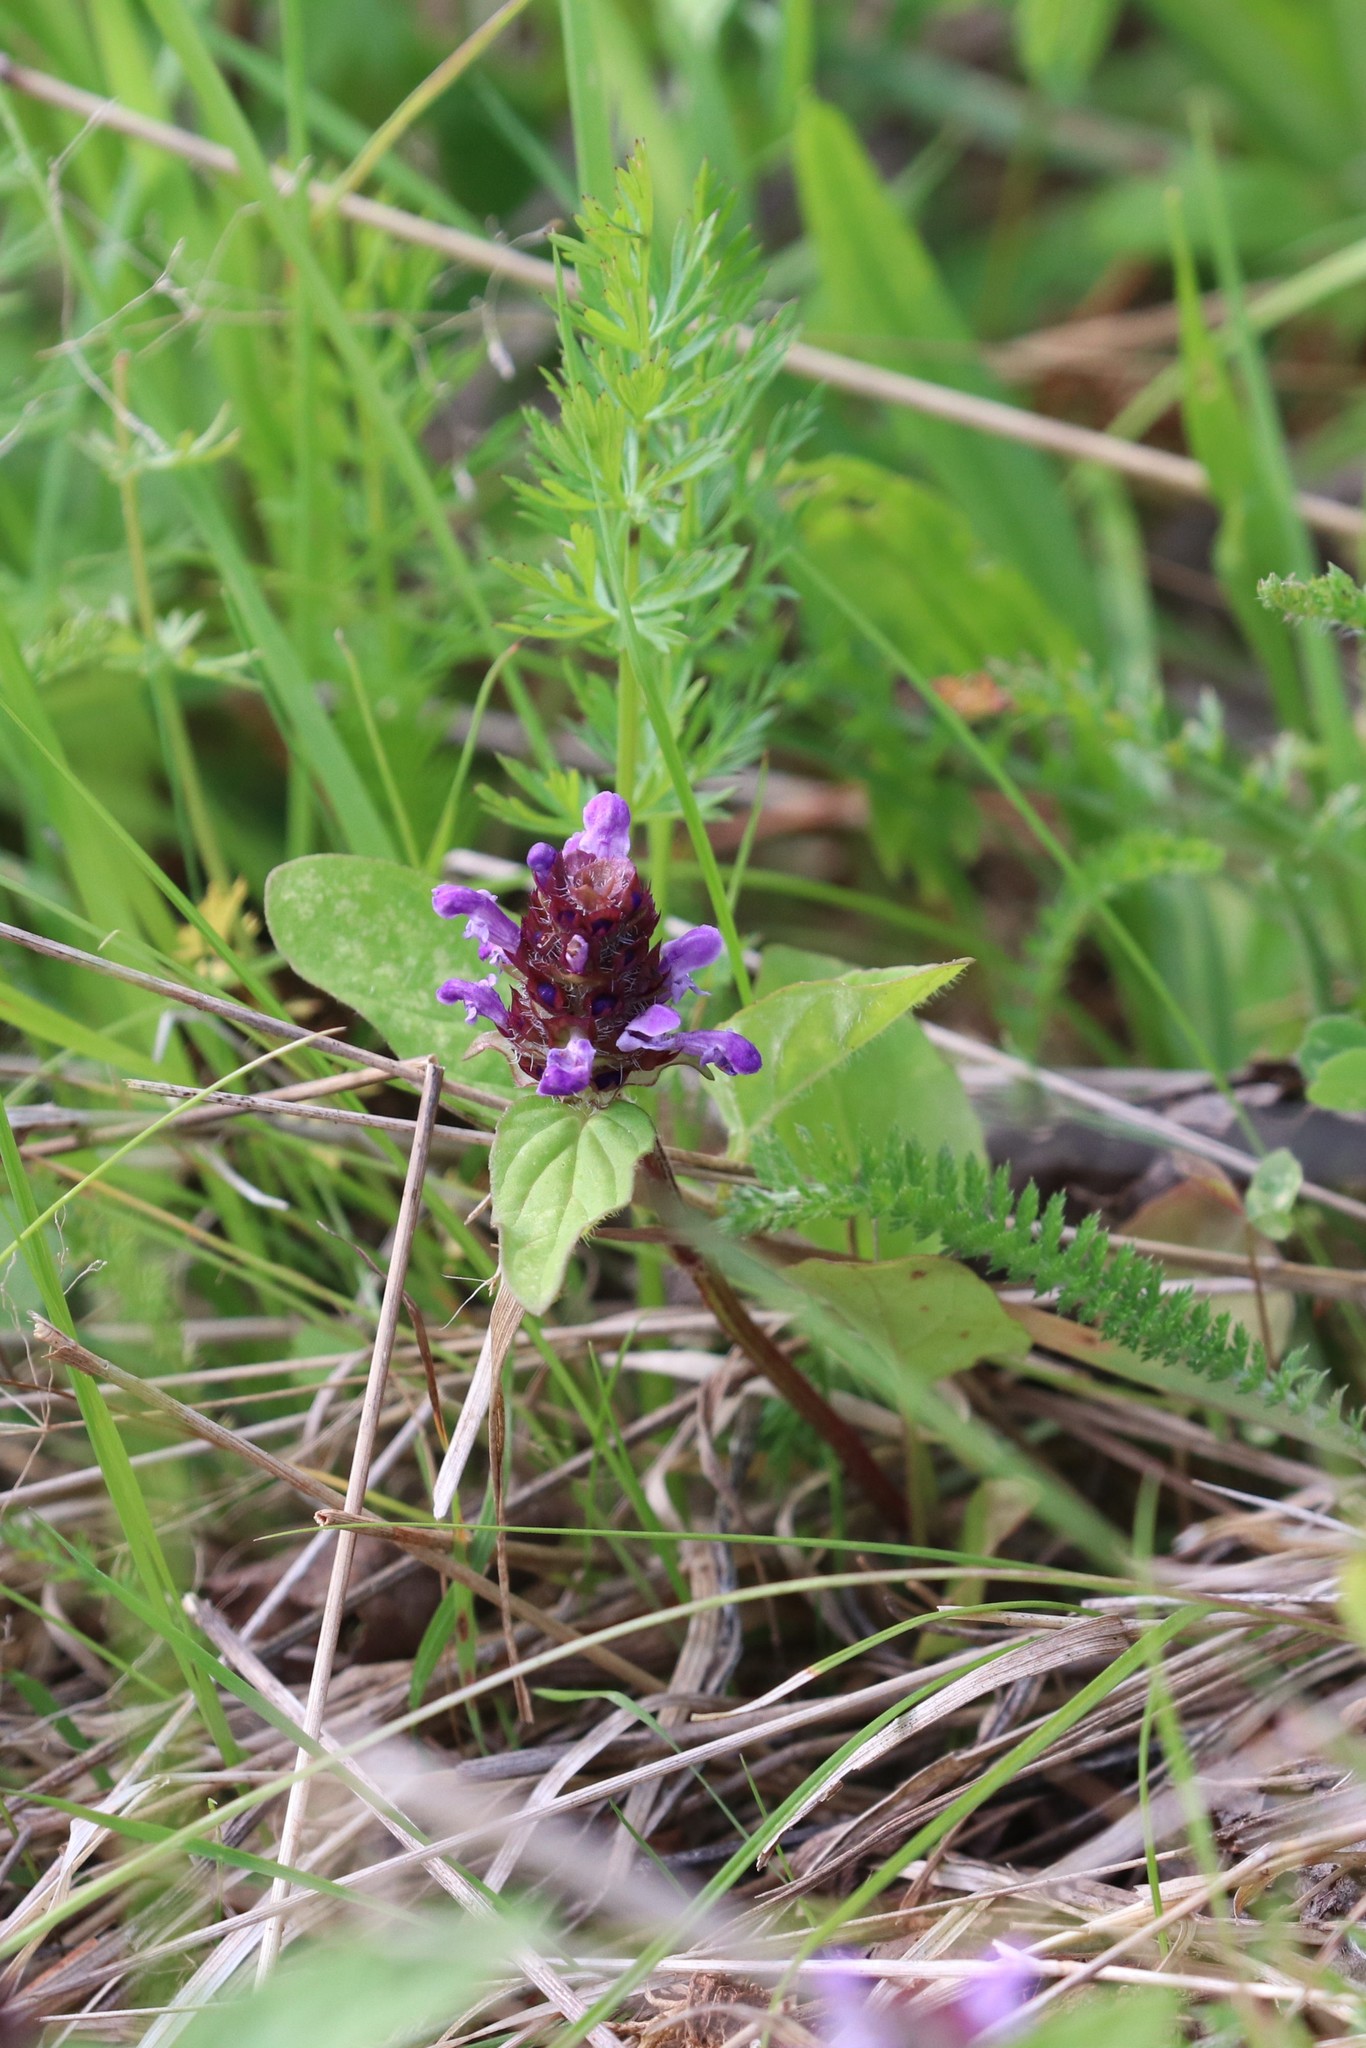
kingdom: Plantae
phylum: Tracheophyta
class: Magnoliopsida
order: Lamiales
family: Lamiaceae
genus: Prunella
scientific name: Prunella vulgaris
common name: Heal-all
